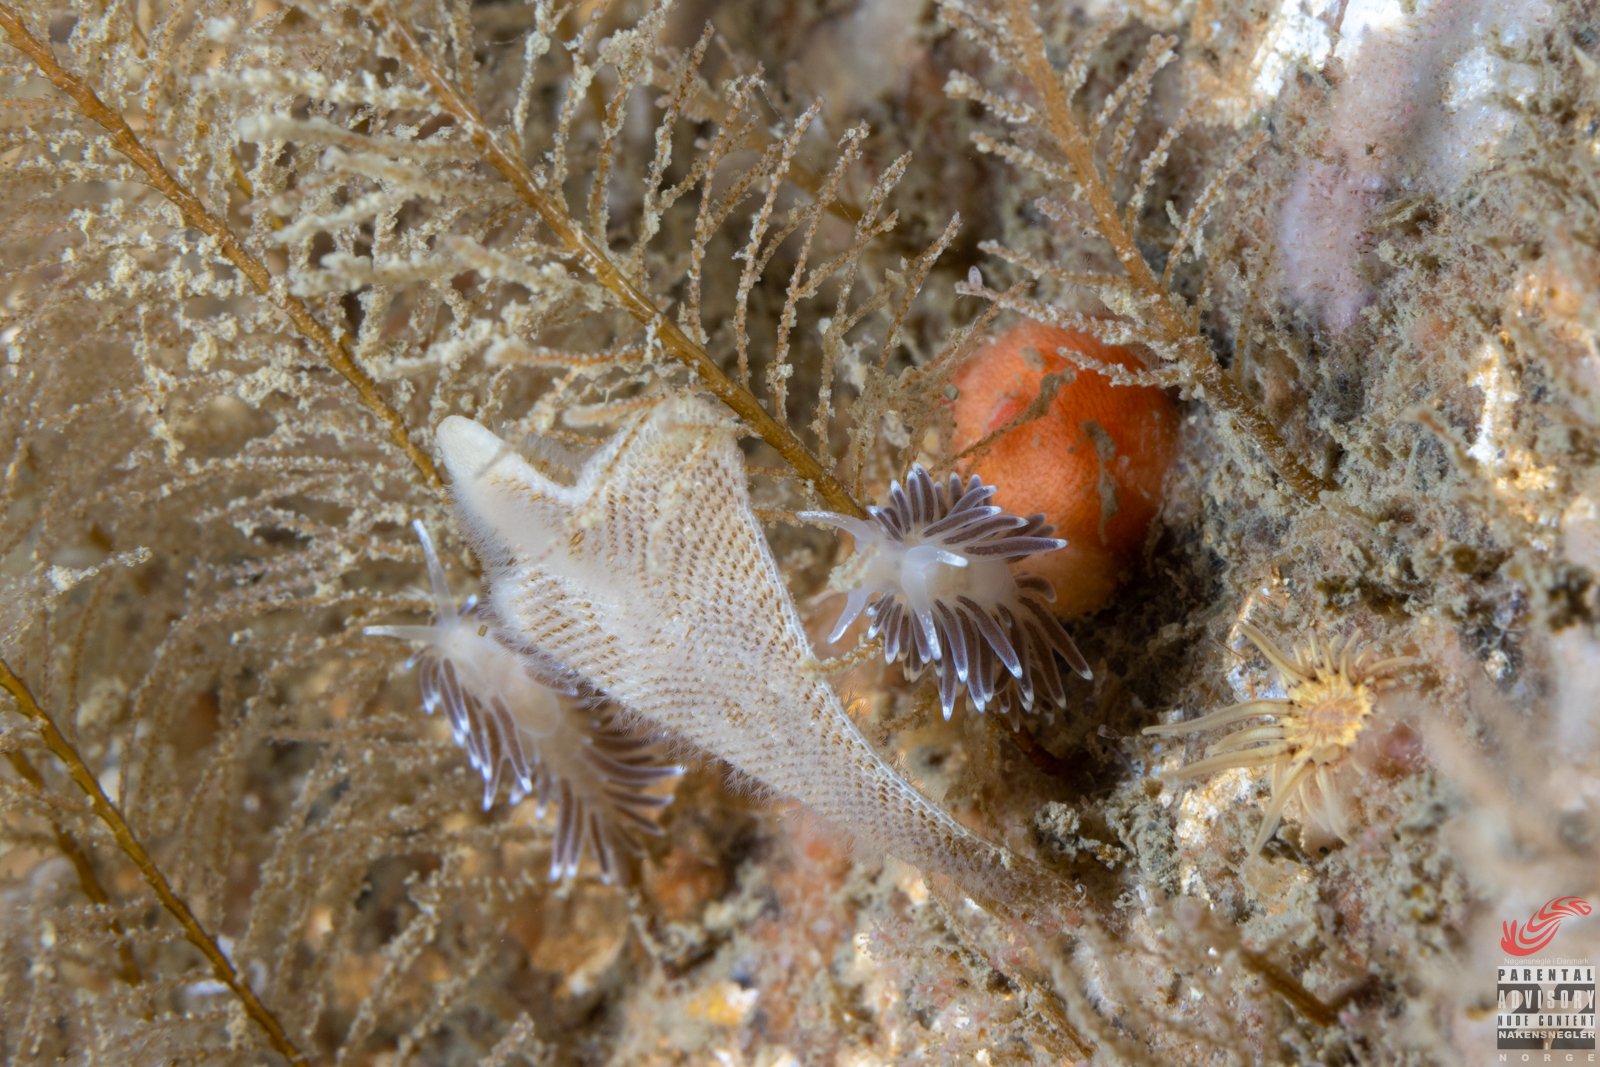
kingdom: Animalia
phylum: Mollusca
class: Gastropoda
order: Nudibranchia
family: Cuthonellidae
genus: Cuthonella
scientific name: Cuthonella concinna
